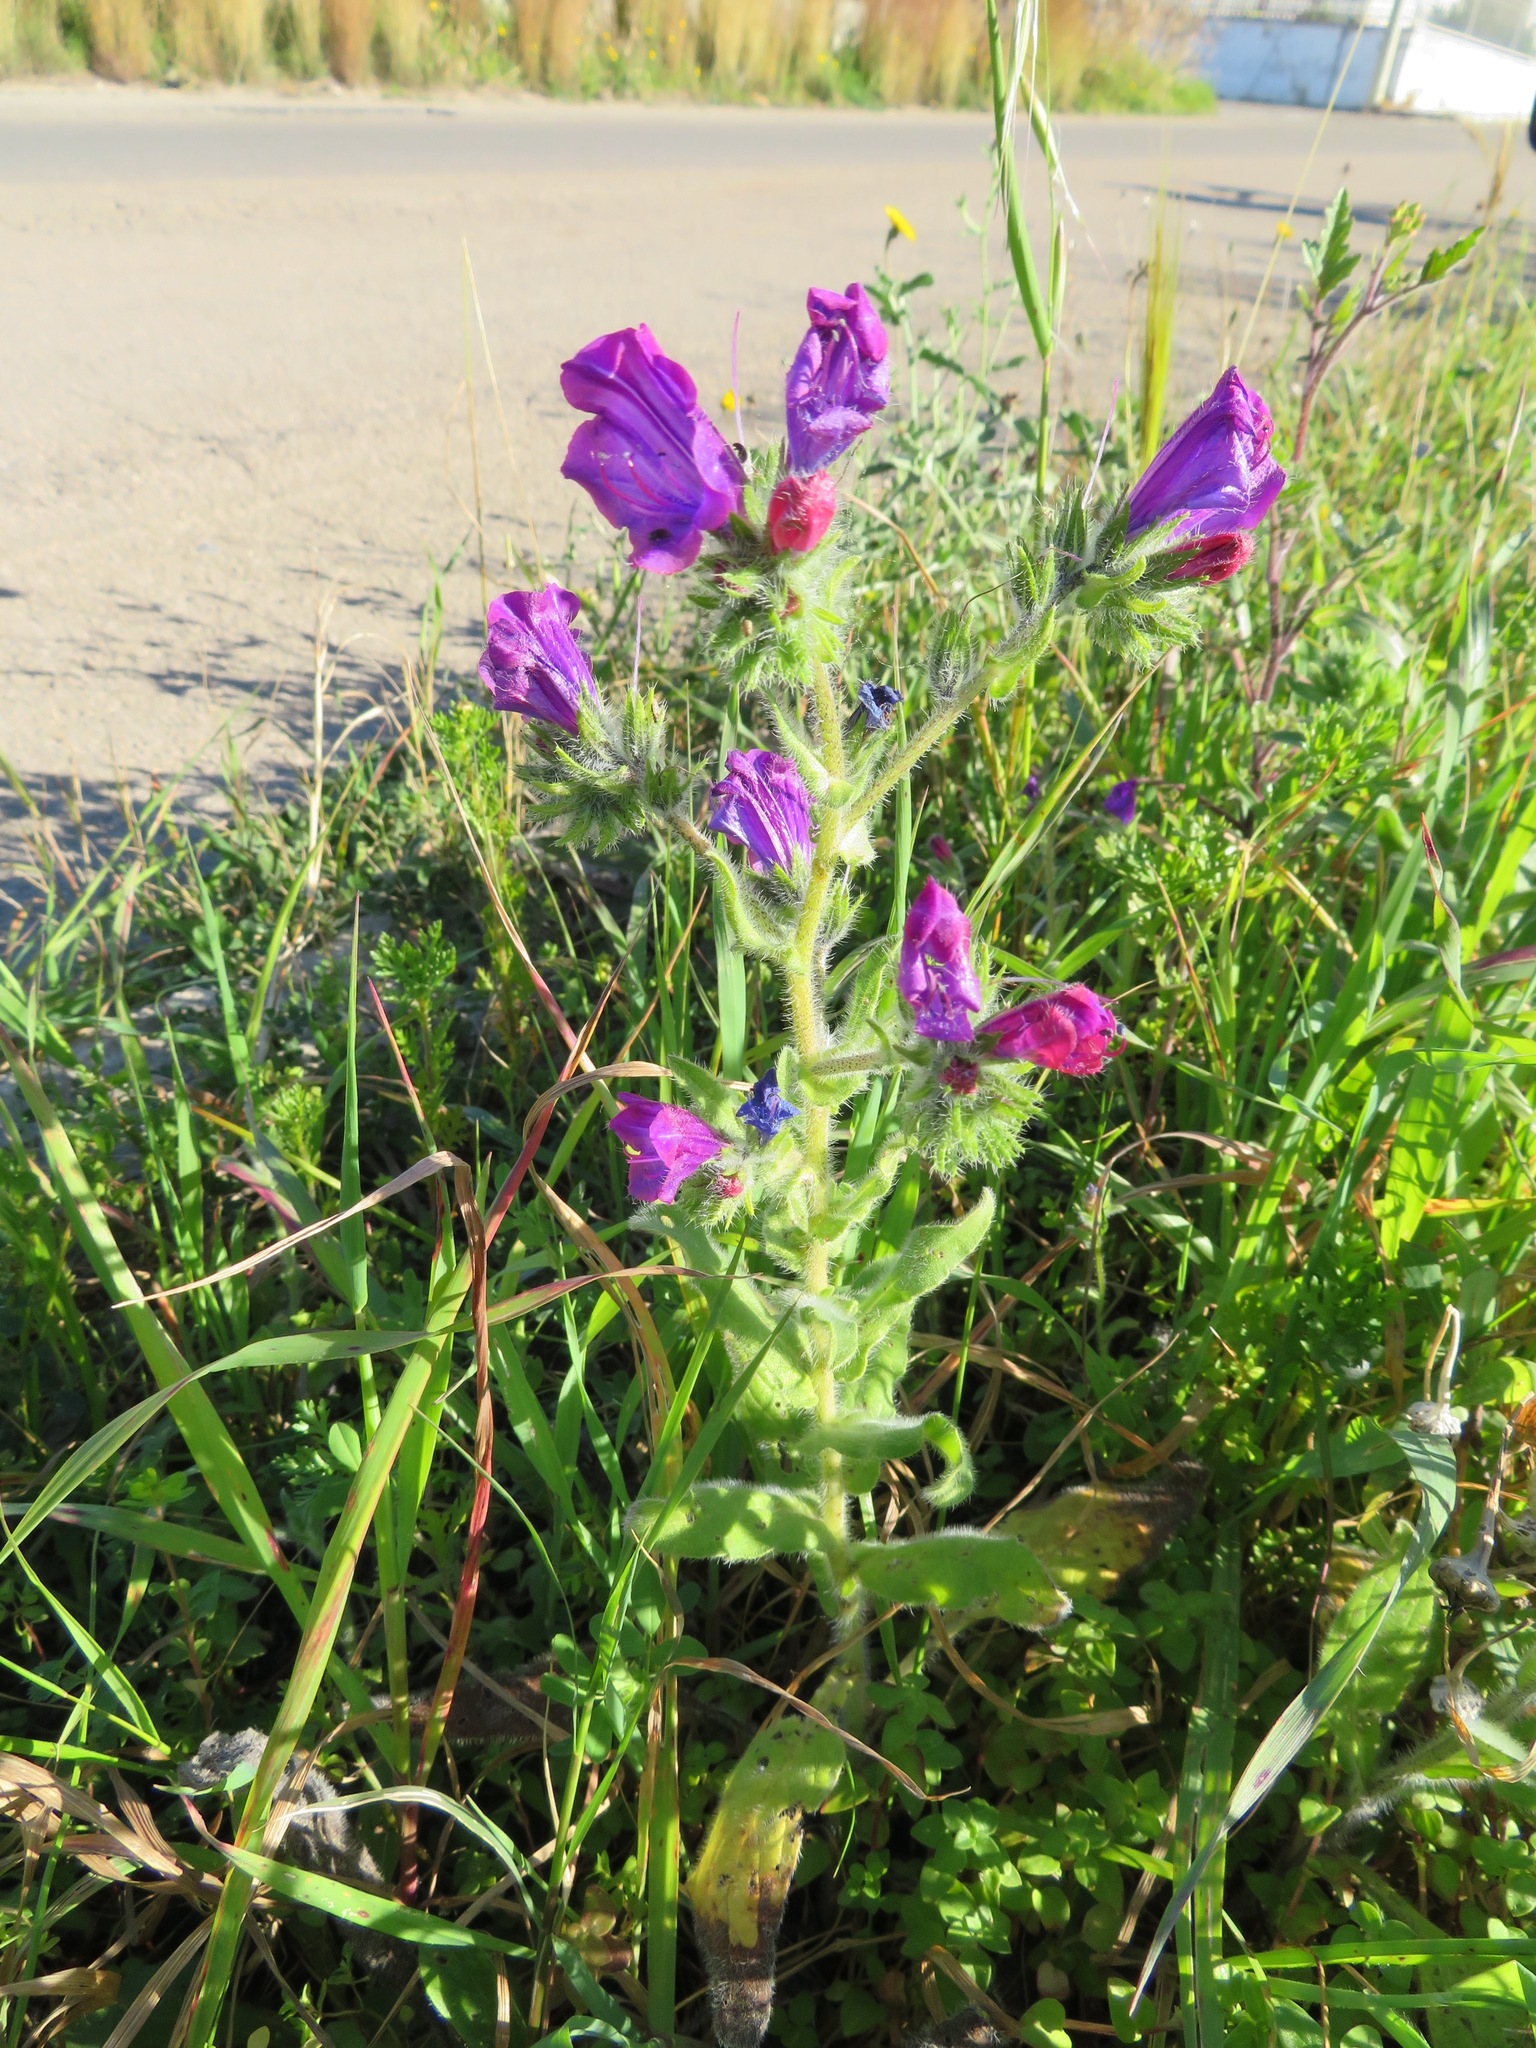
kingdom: Plantae
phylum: Tracheophyta
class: Magnoliopsida
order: Boraginales
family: Boraginaceae
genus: Echium
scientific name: Echium plantagineum
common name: Purple viper's-bugloss
